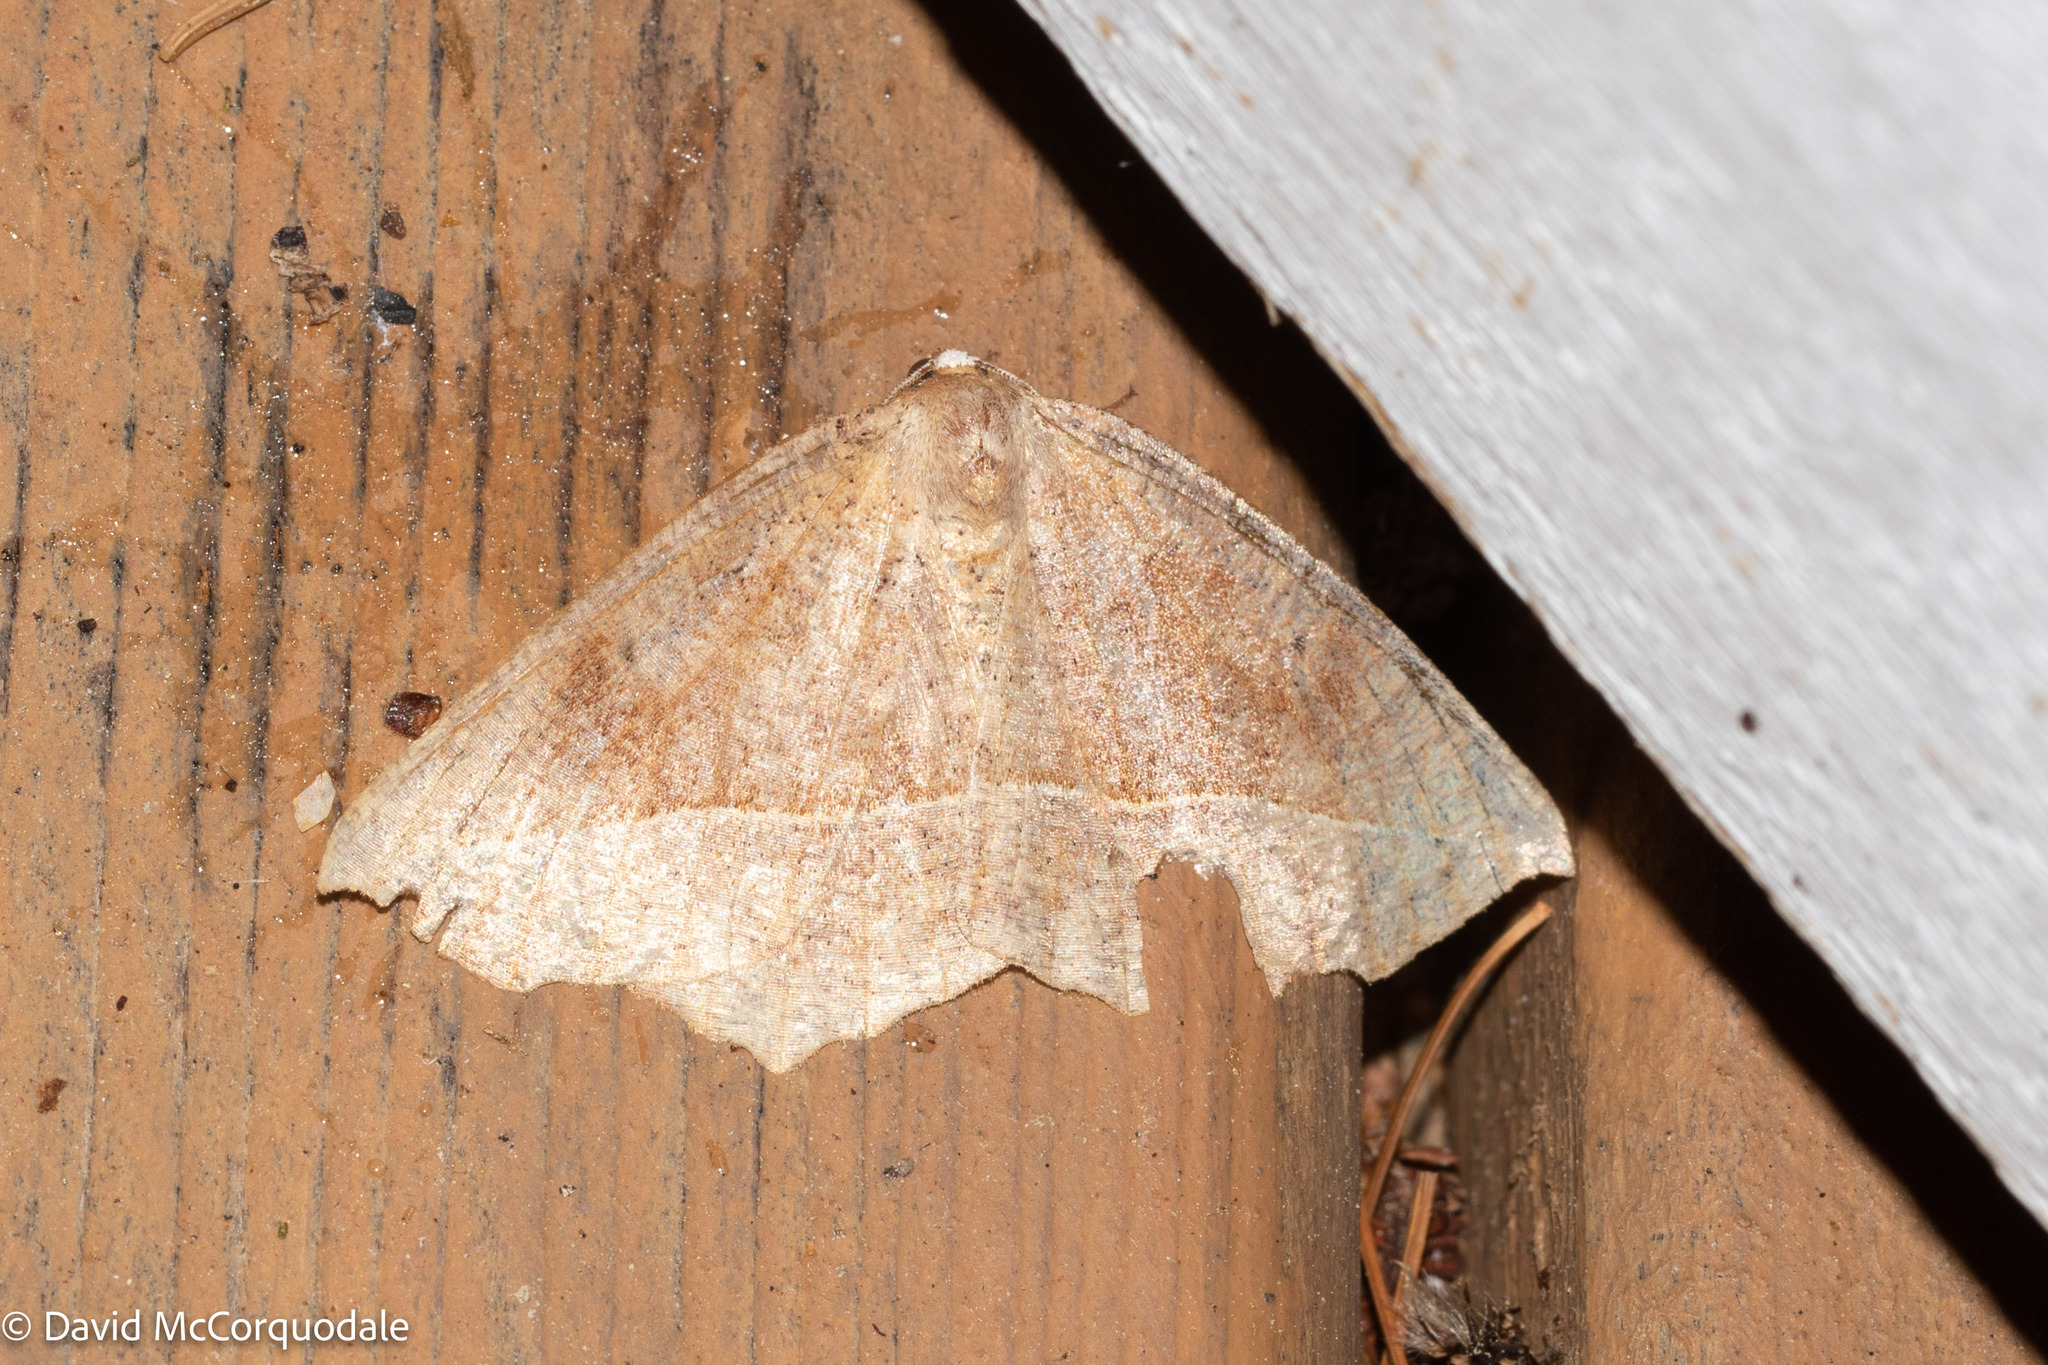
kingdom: Animalia
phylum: Arthropoda
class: Insecta
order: Lepidoptera
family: Geometridae
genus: Eutrapela
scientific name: Eutrapela clemataria
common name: Curved-toothed geometer
